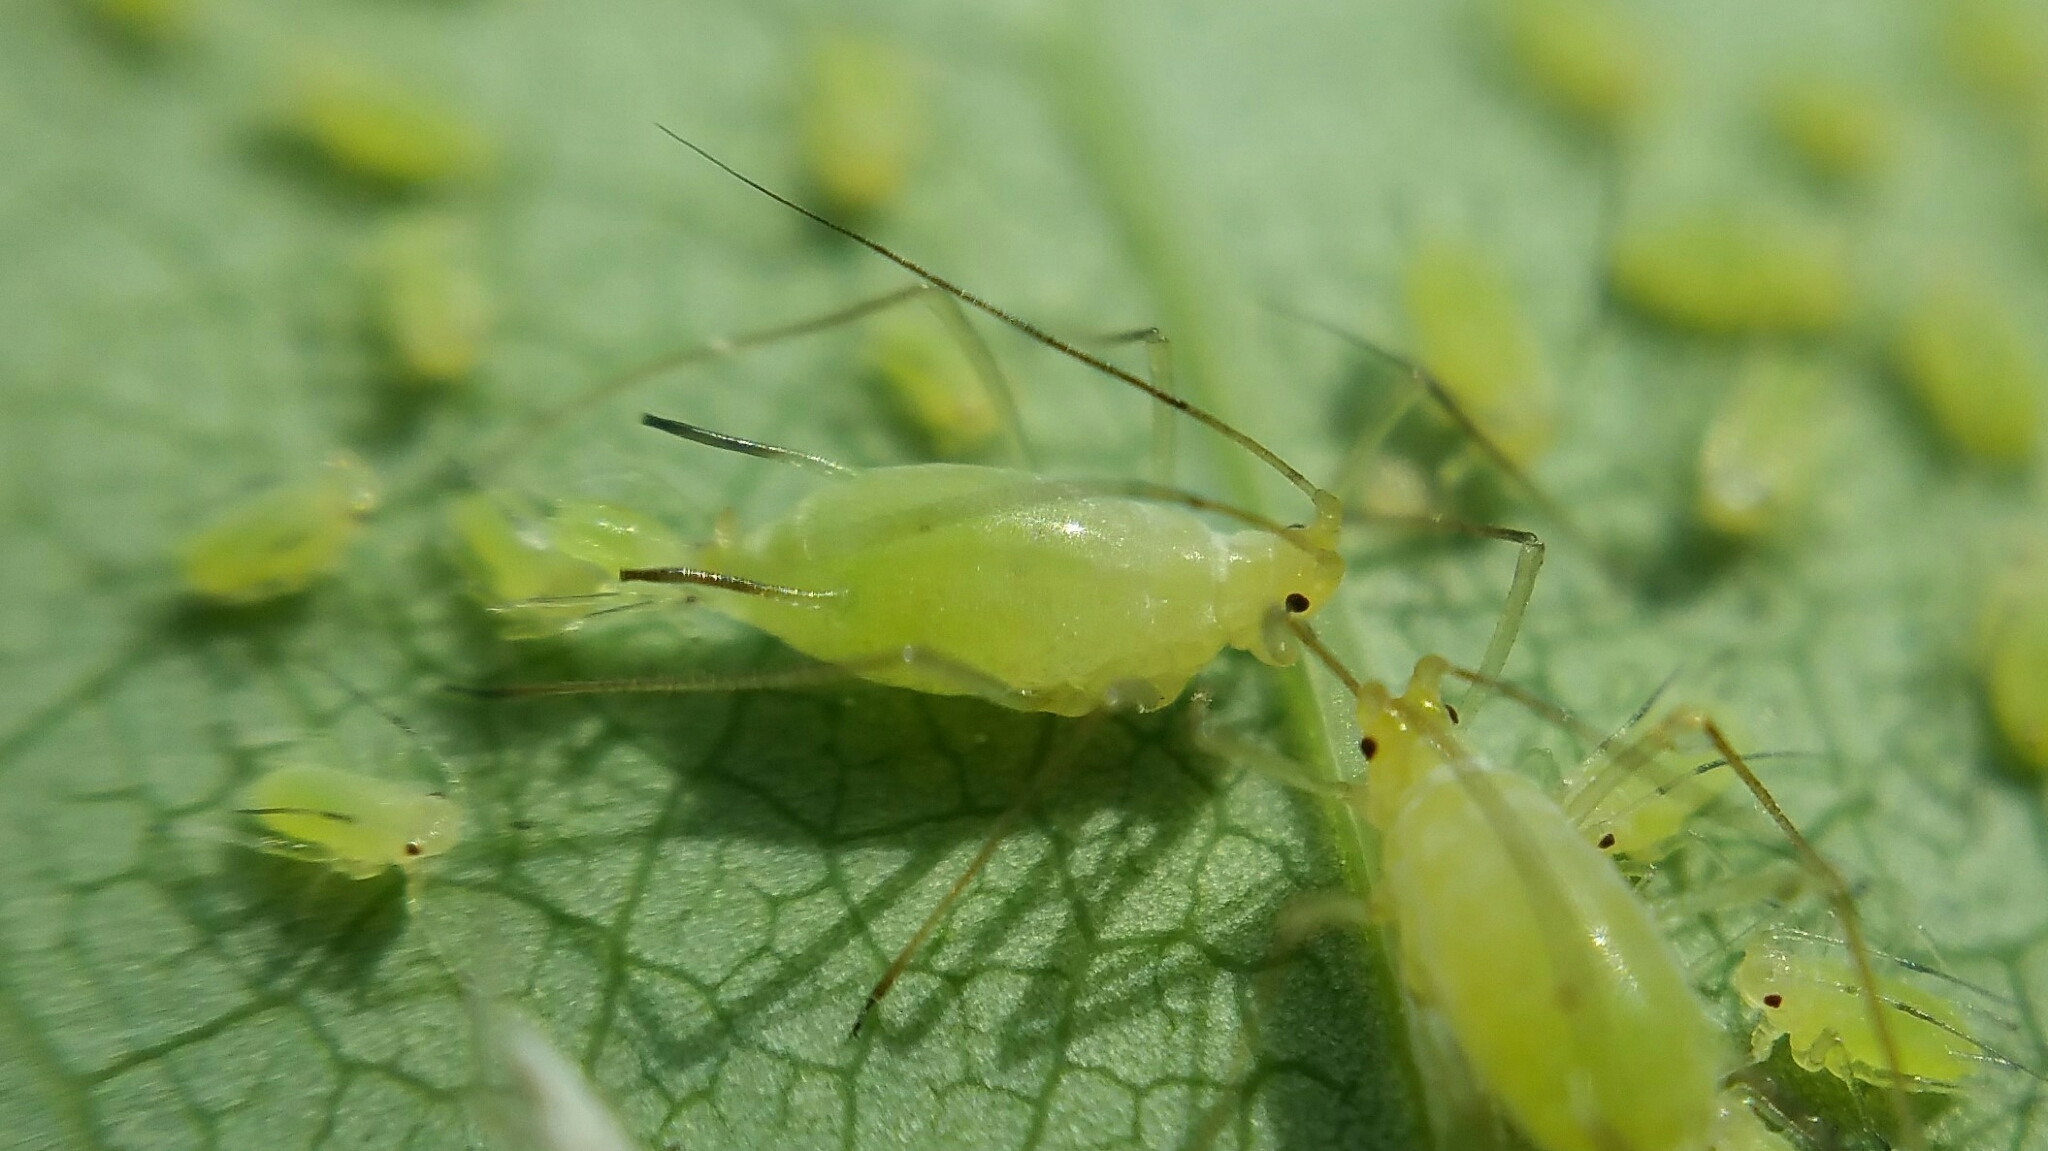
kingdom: Animalia
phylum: Arthropoda
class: Insecta
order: Hemiptera
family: Aphididae
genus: Illinoia
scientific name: Illinoia liriodendri
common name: Tuliptree aphid
